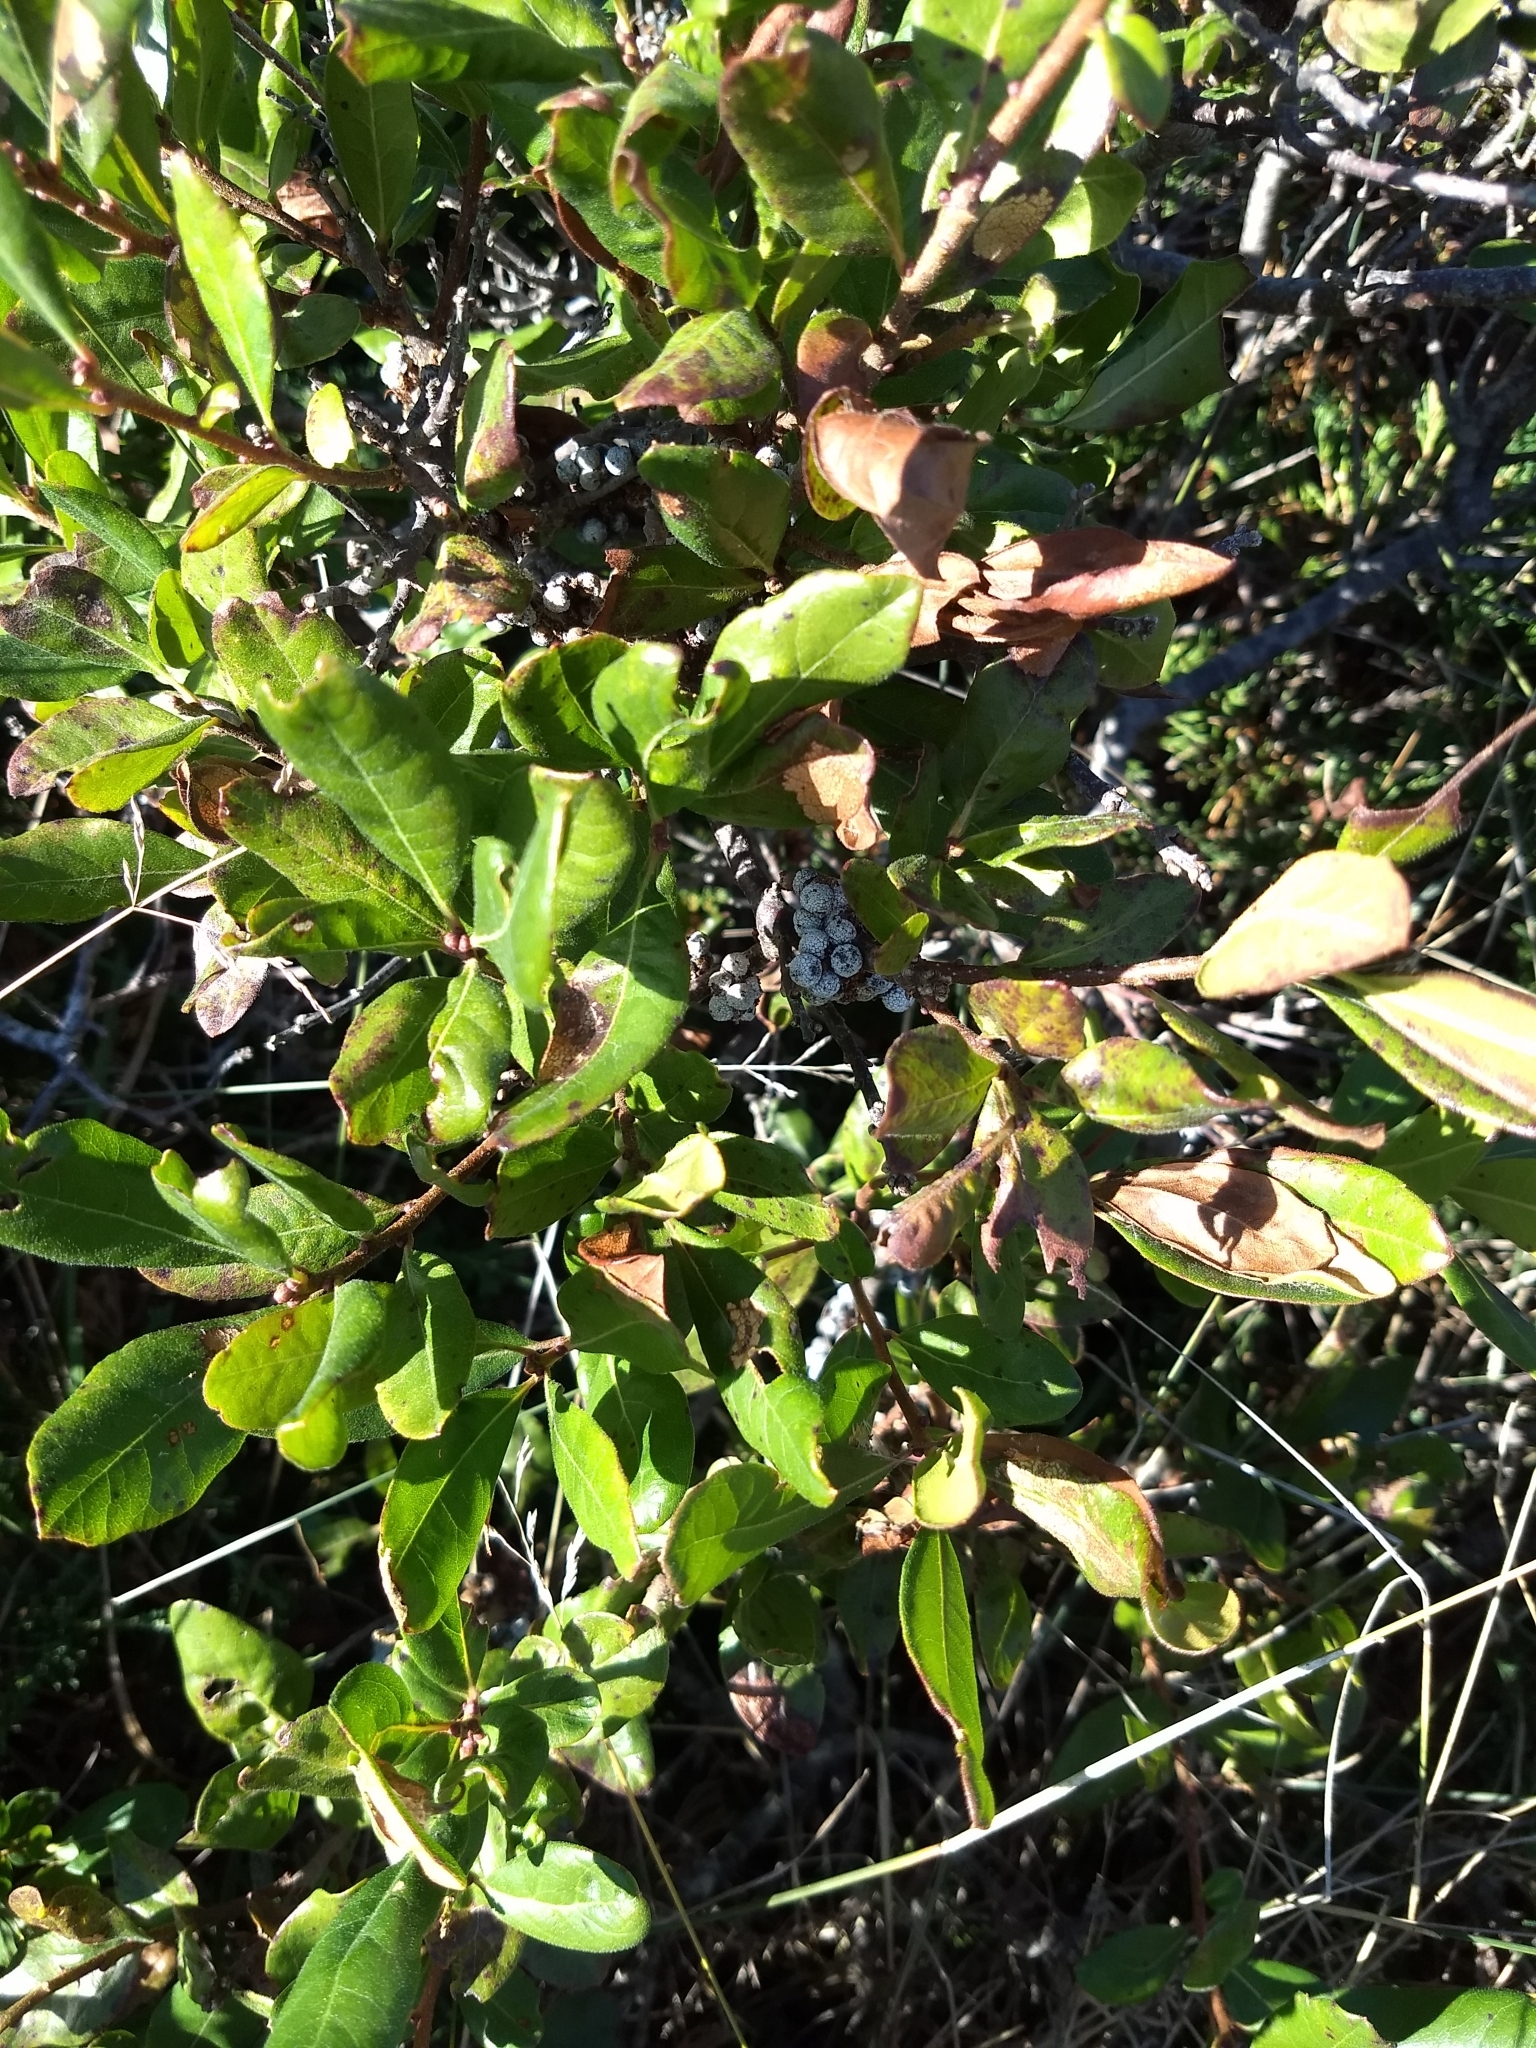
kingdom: Plantae
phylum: Tracheophyta
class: Magnoliopsida
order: Fagales
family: Myricaceae
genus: Morella
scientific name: Morella pensylvanica
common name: Northern bayberry
